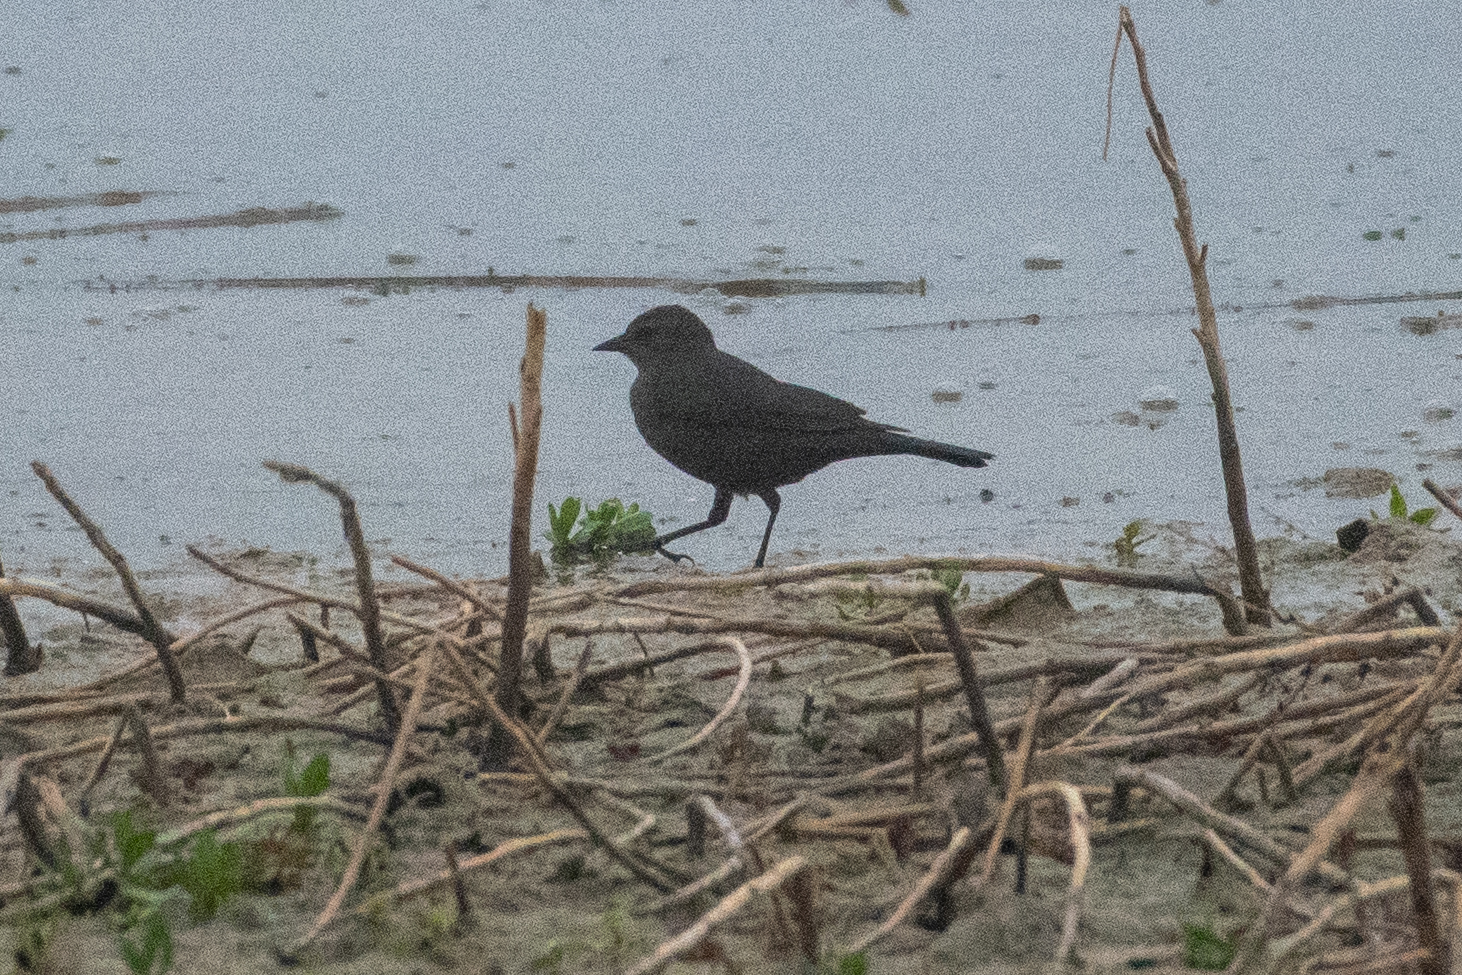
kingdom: Animalia
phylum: Chordata
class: Aves
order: Passeriformes
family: Icteridae
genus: Euphagus
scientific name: Euphagus cyanocephalus
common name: Brewer's blackbird
